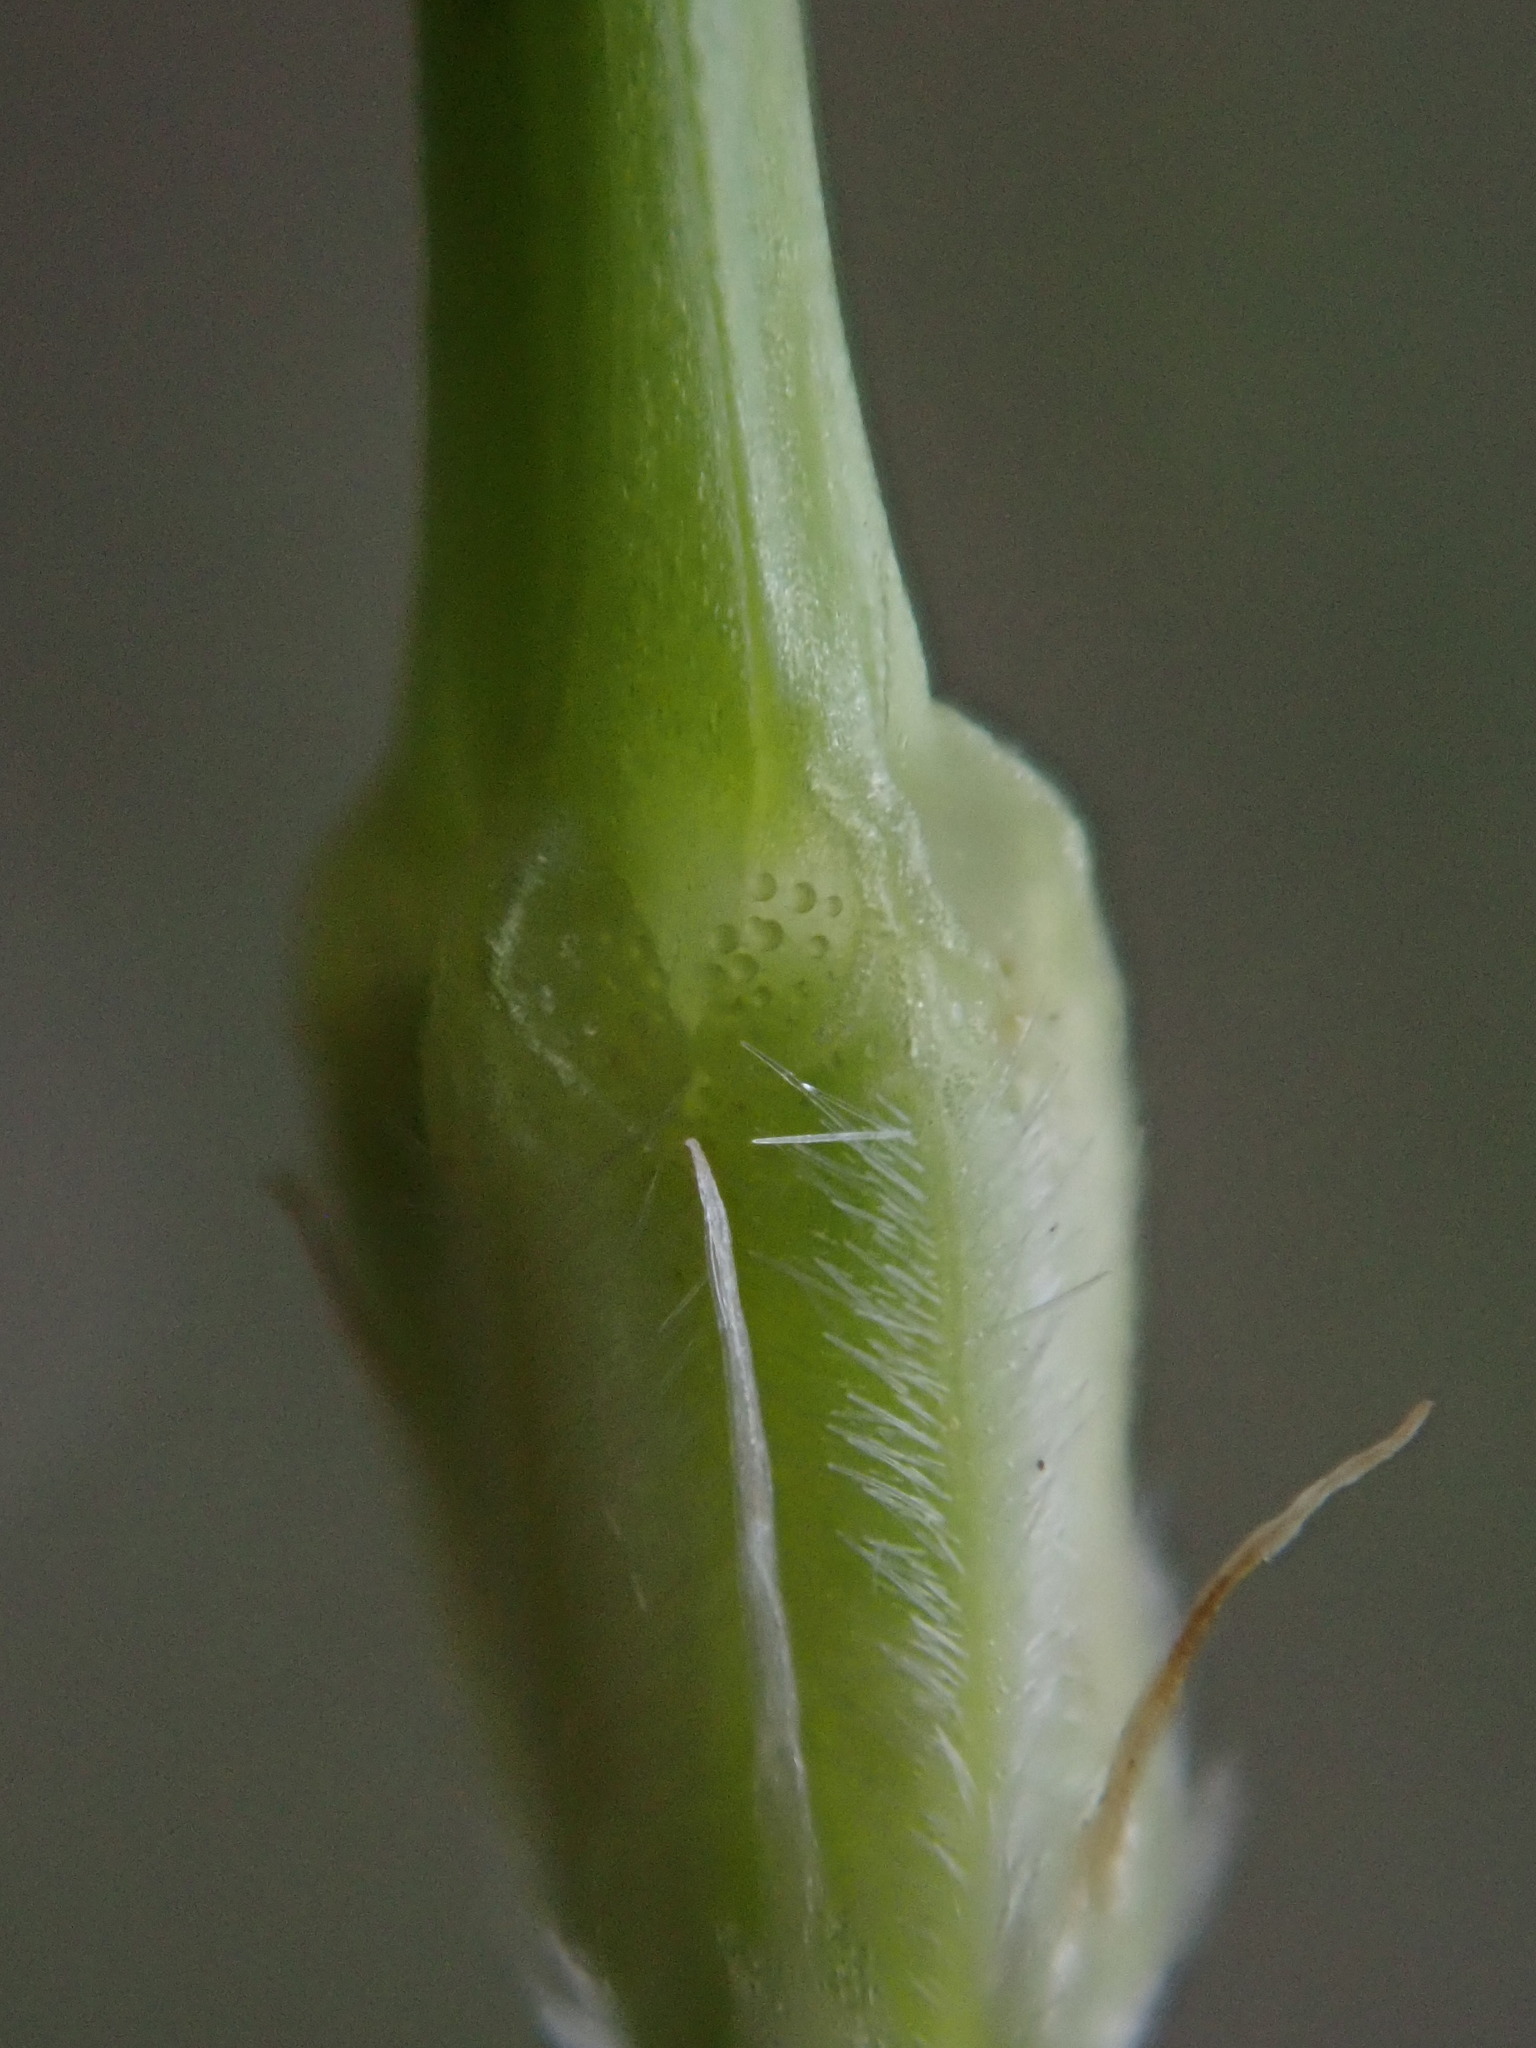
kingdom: Plantae
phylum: Tracheophyta
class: Magnoliopsida
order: Geraniales
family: Geraniaceae
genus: Erodium
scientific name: Erodium moschatum
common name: Musk stork's-bill
